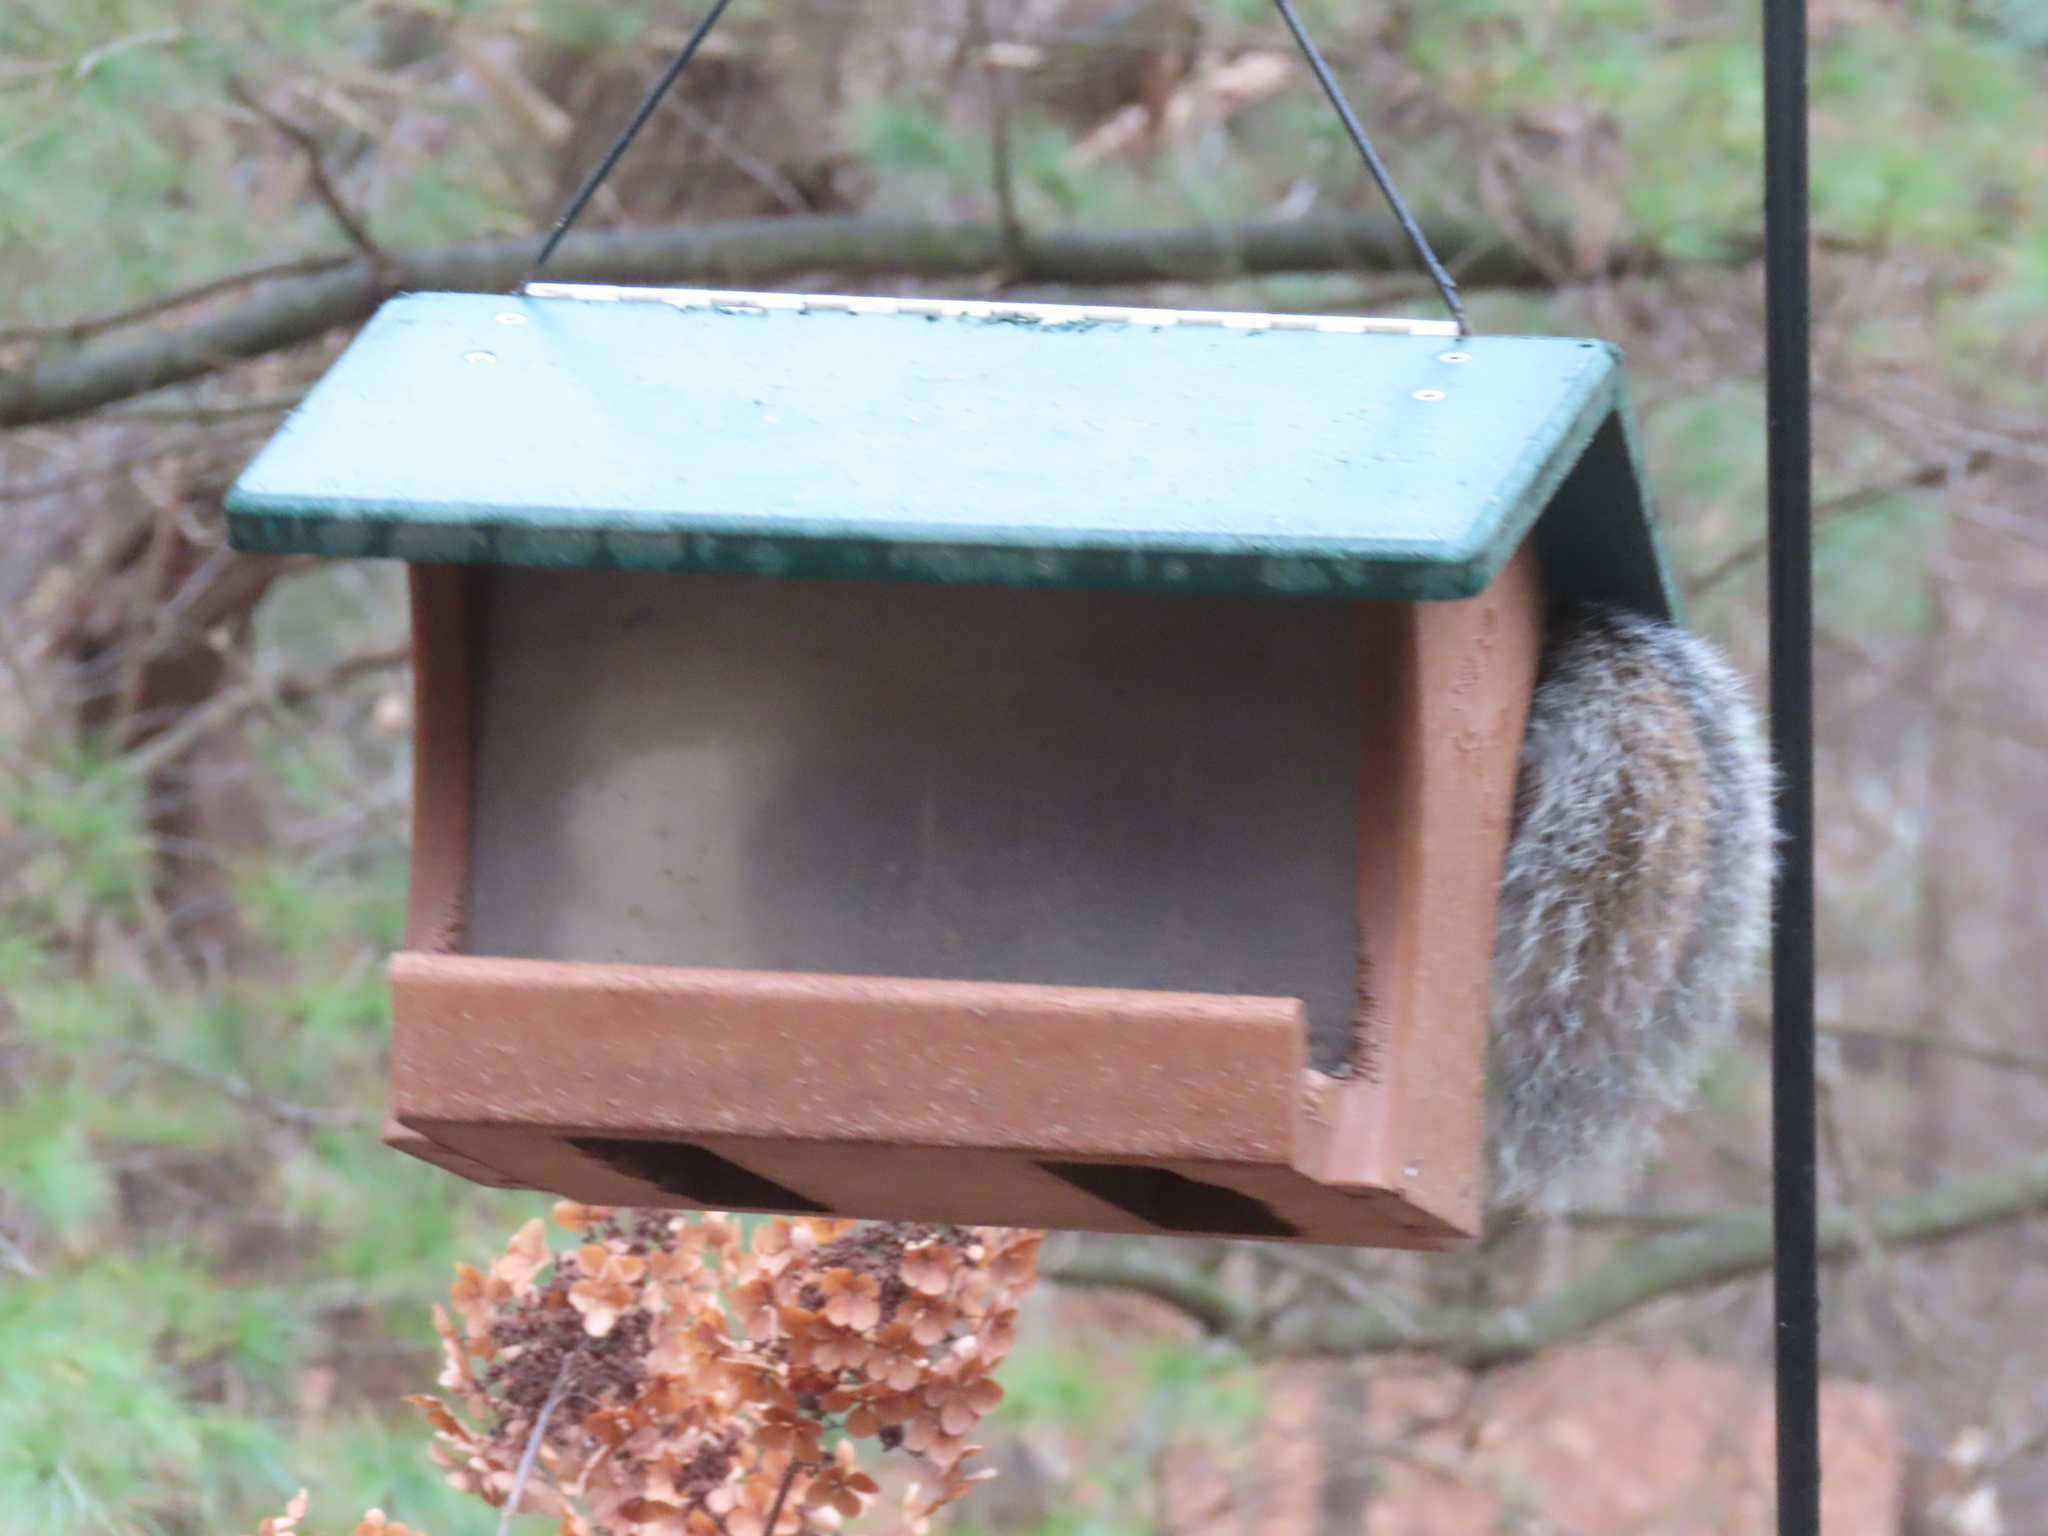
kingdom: Animalia
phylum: Chordata
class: Mammalia
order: Rodentia
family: Sciuridae
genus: Sciurus
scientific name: Sciurus carolinensis
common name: Eastern gray squirrel
